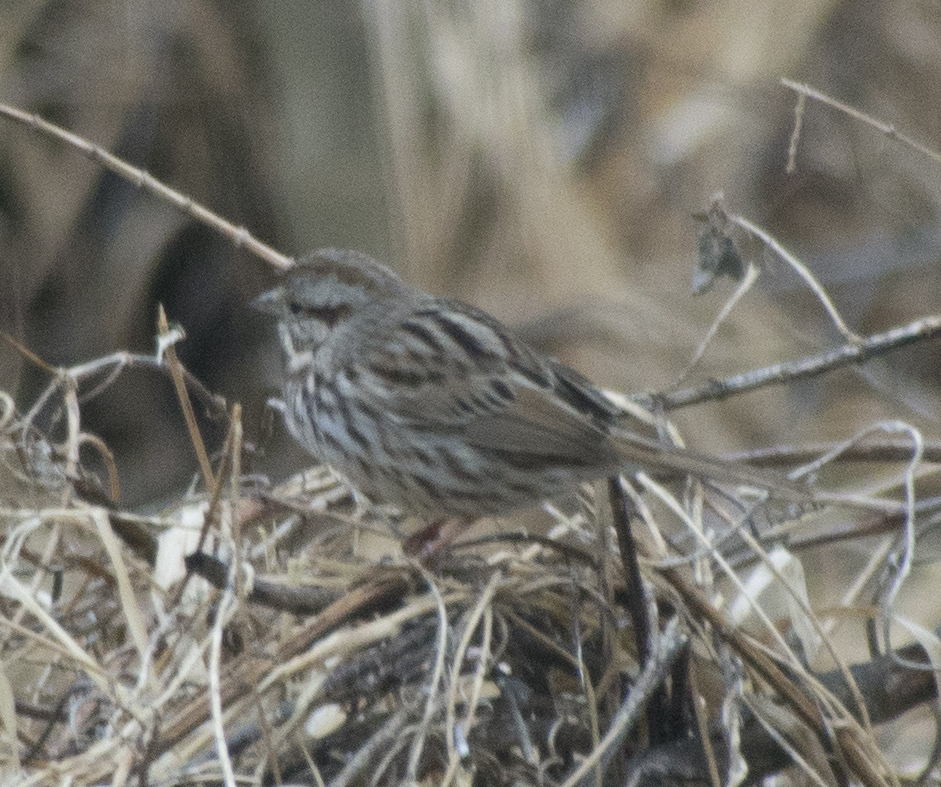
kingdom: Animalia
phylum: Chordata
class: Aves
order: Passeriformes
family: Passerellidae
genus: Melospiza
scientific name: Melospiza melodia
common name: Song sparrow
